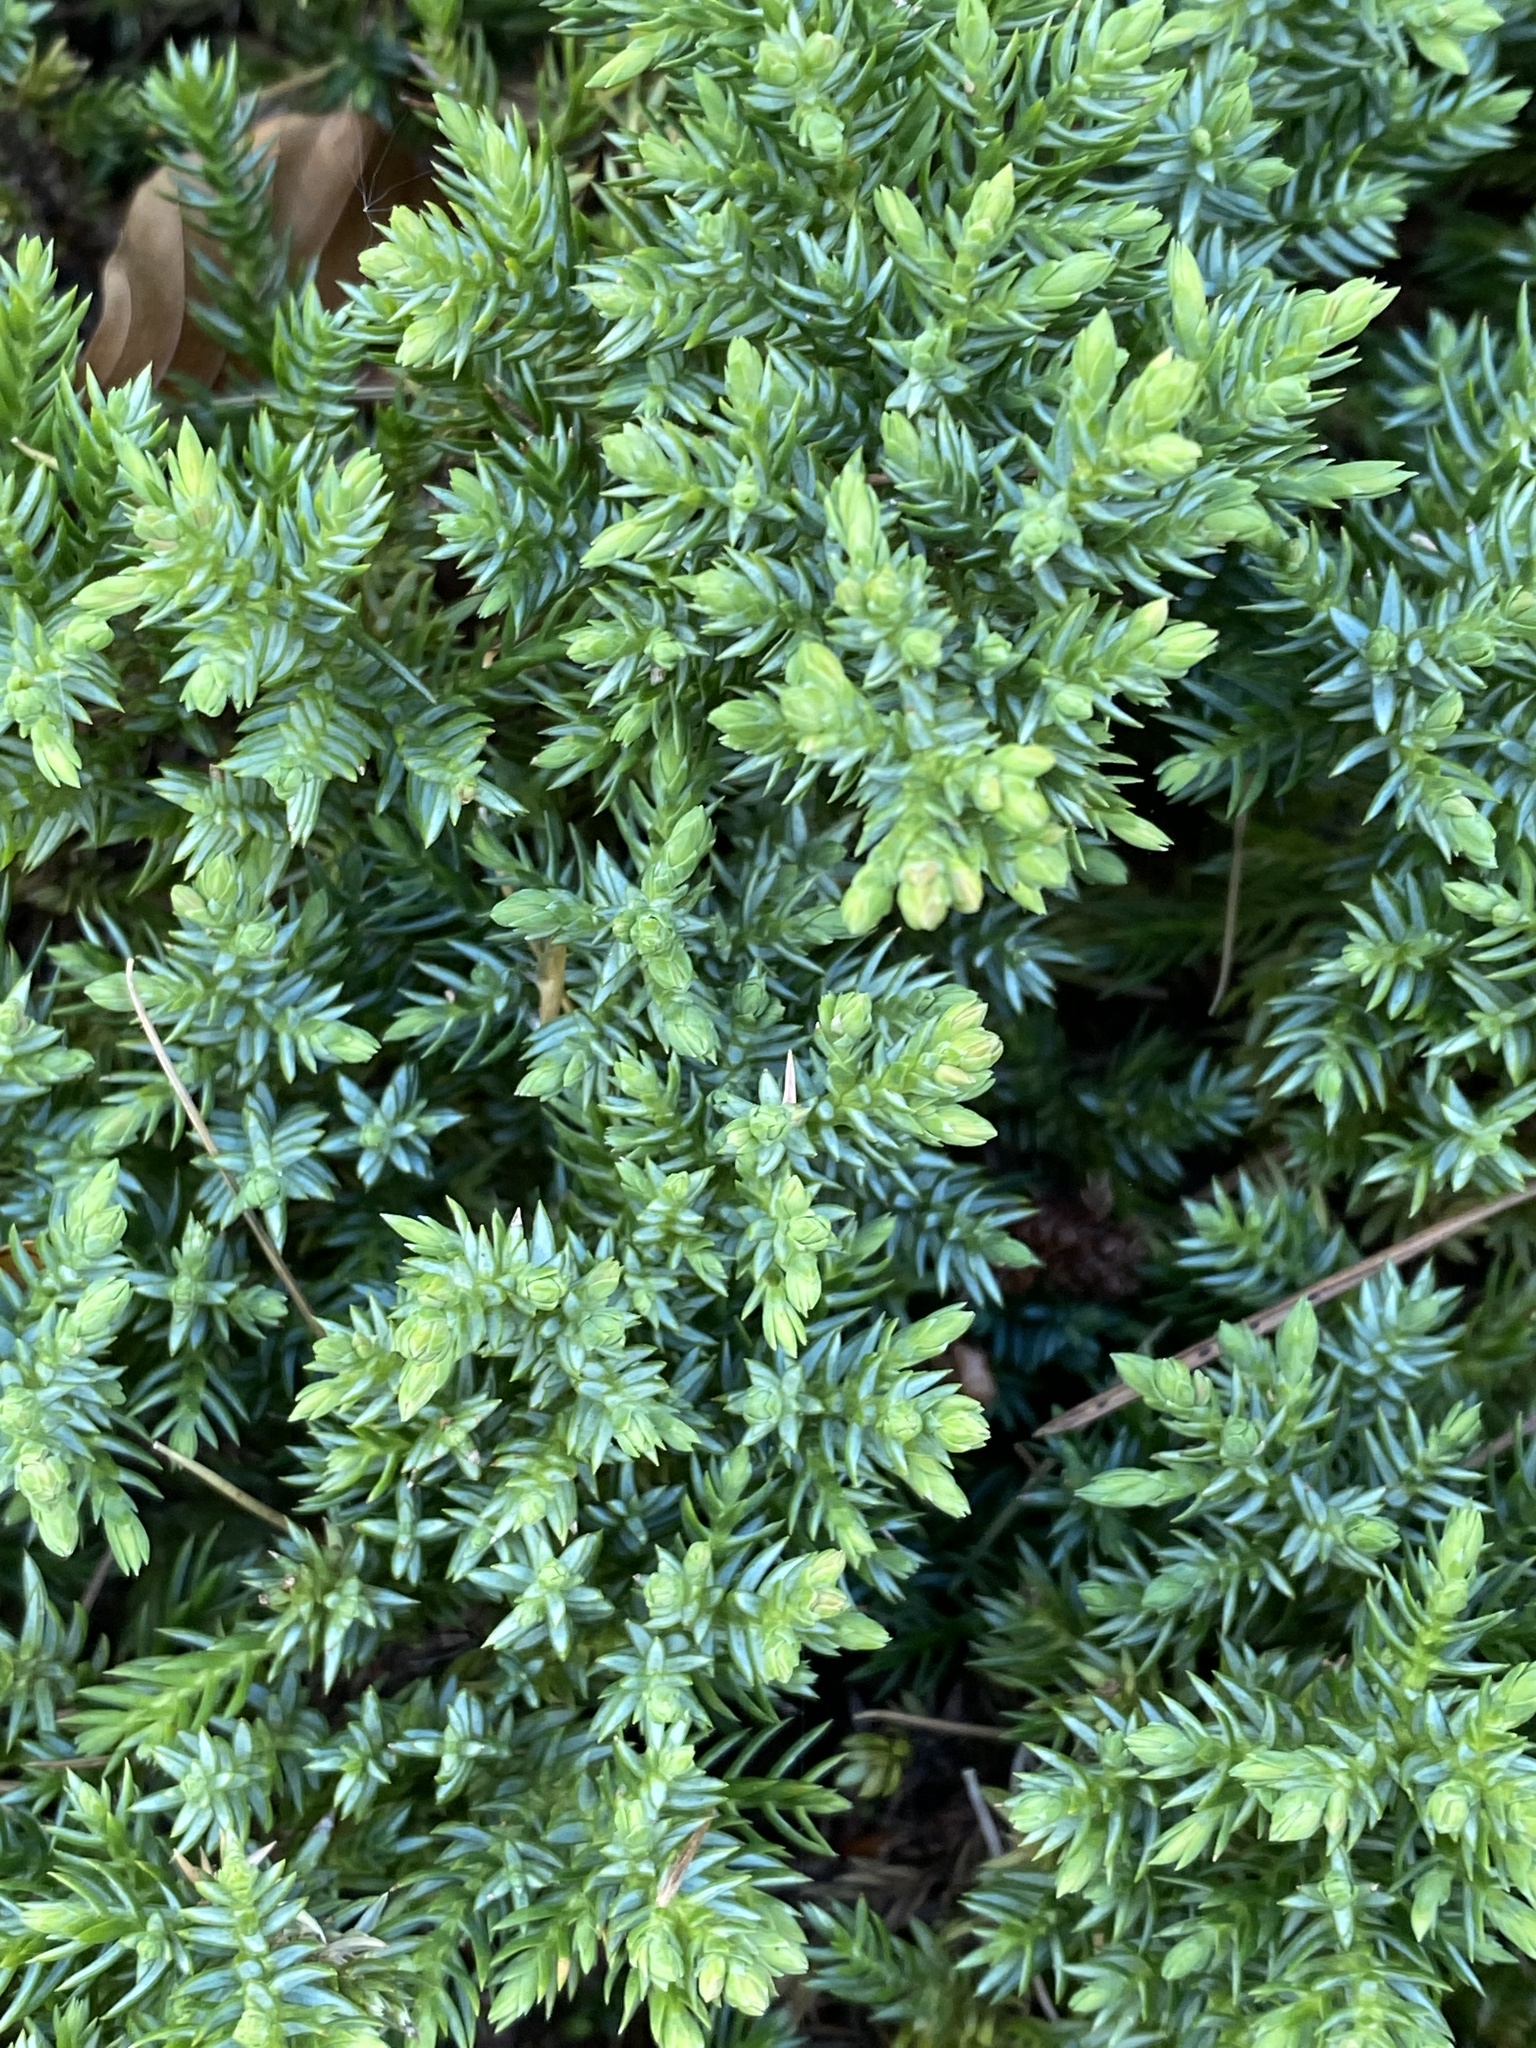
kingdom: Plantae
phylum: Tracheophyta
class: Pinopsida
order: Pinales
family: Cupressaceae
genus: Juniperus
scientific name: Juniperus communis
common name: Common juniper
